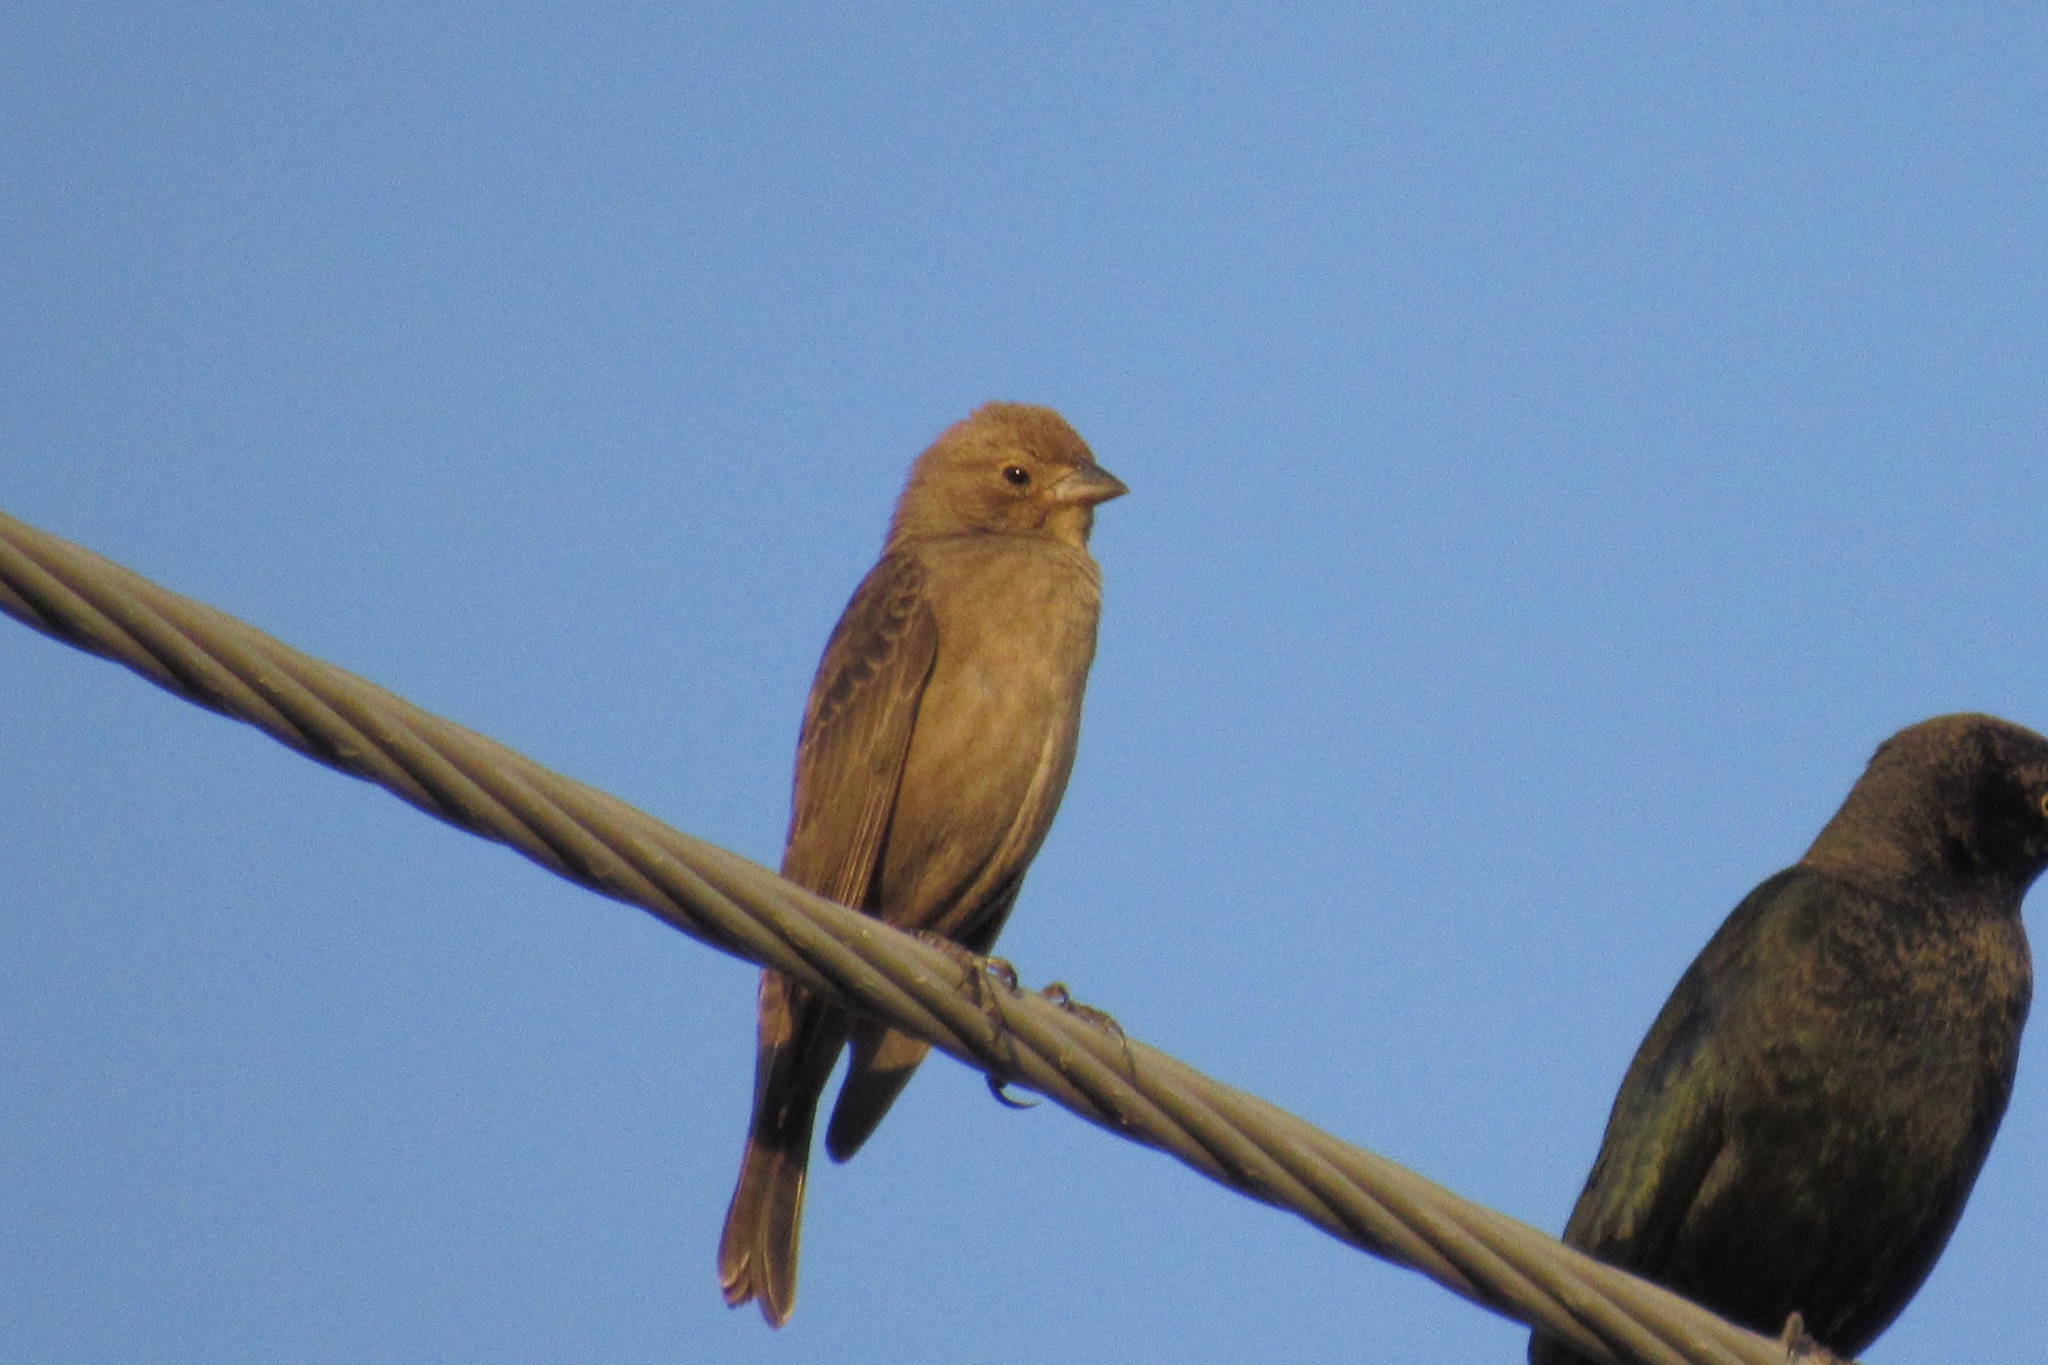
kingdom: Animalia
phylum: Chordata
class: Aves
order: Passeriformes
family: Icteridae
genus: Molothrus
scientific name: Molothrus ater
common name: Brown-headed cowbird
